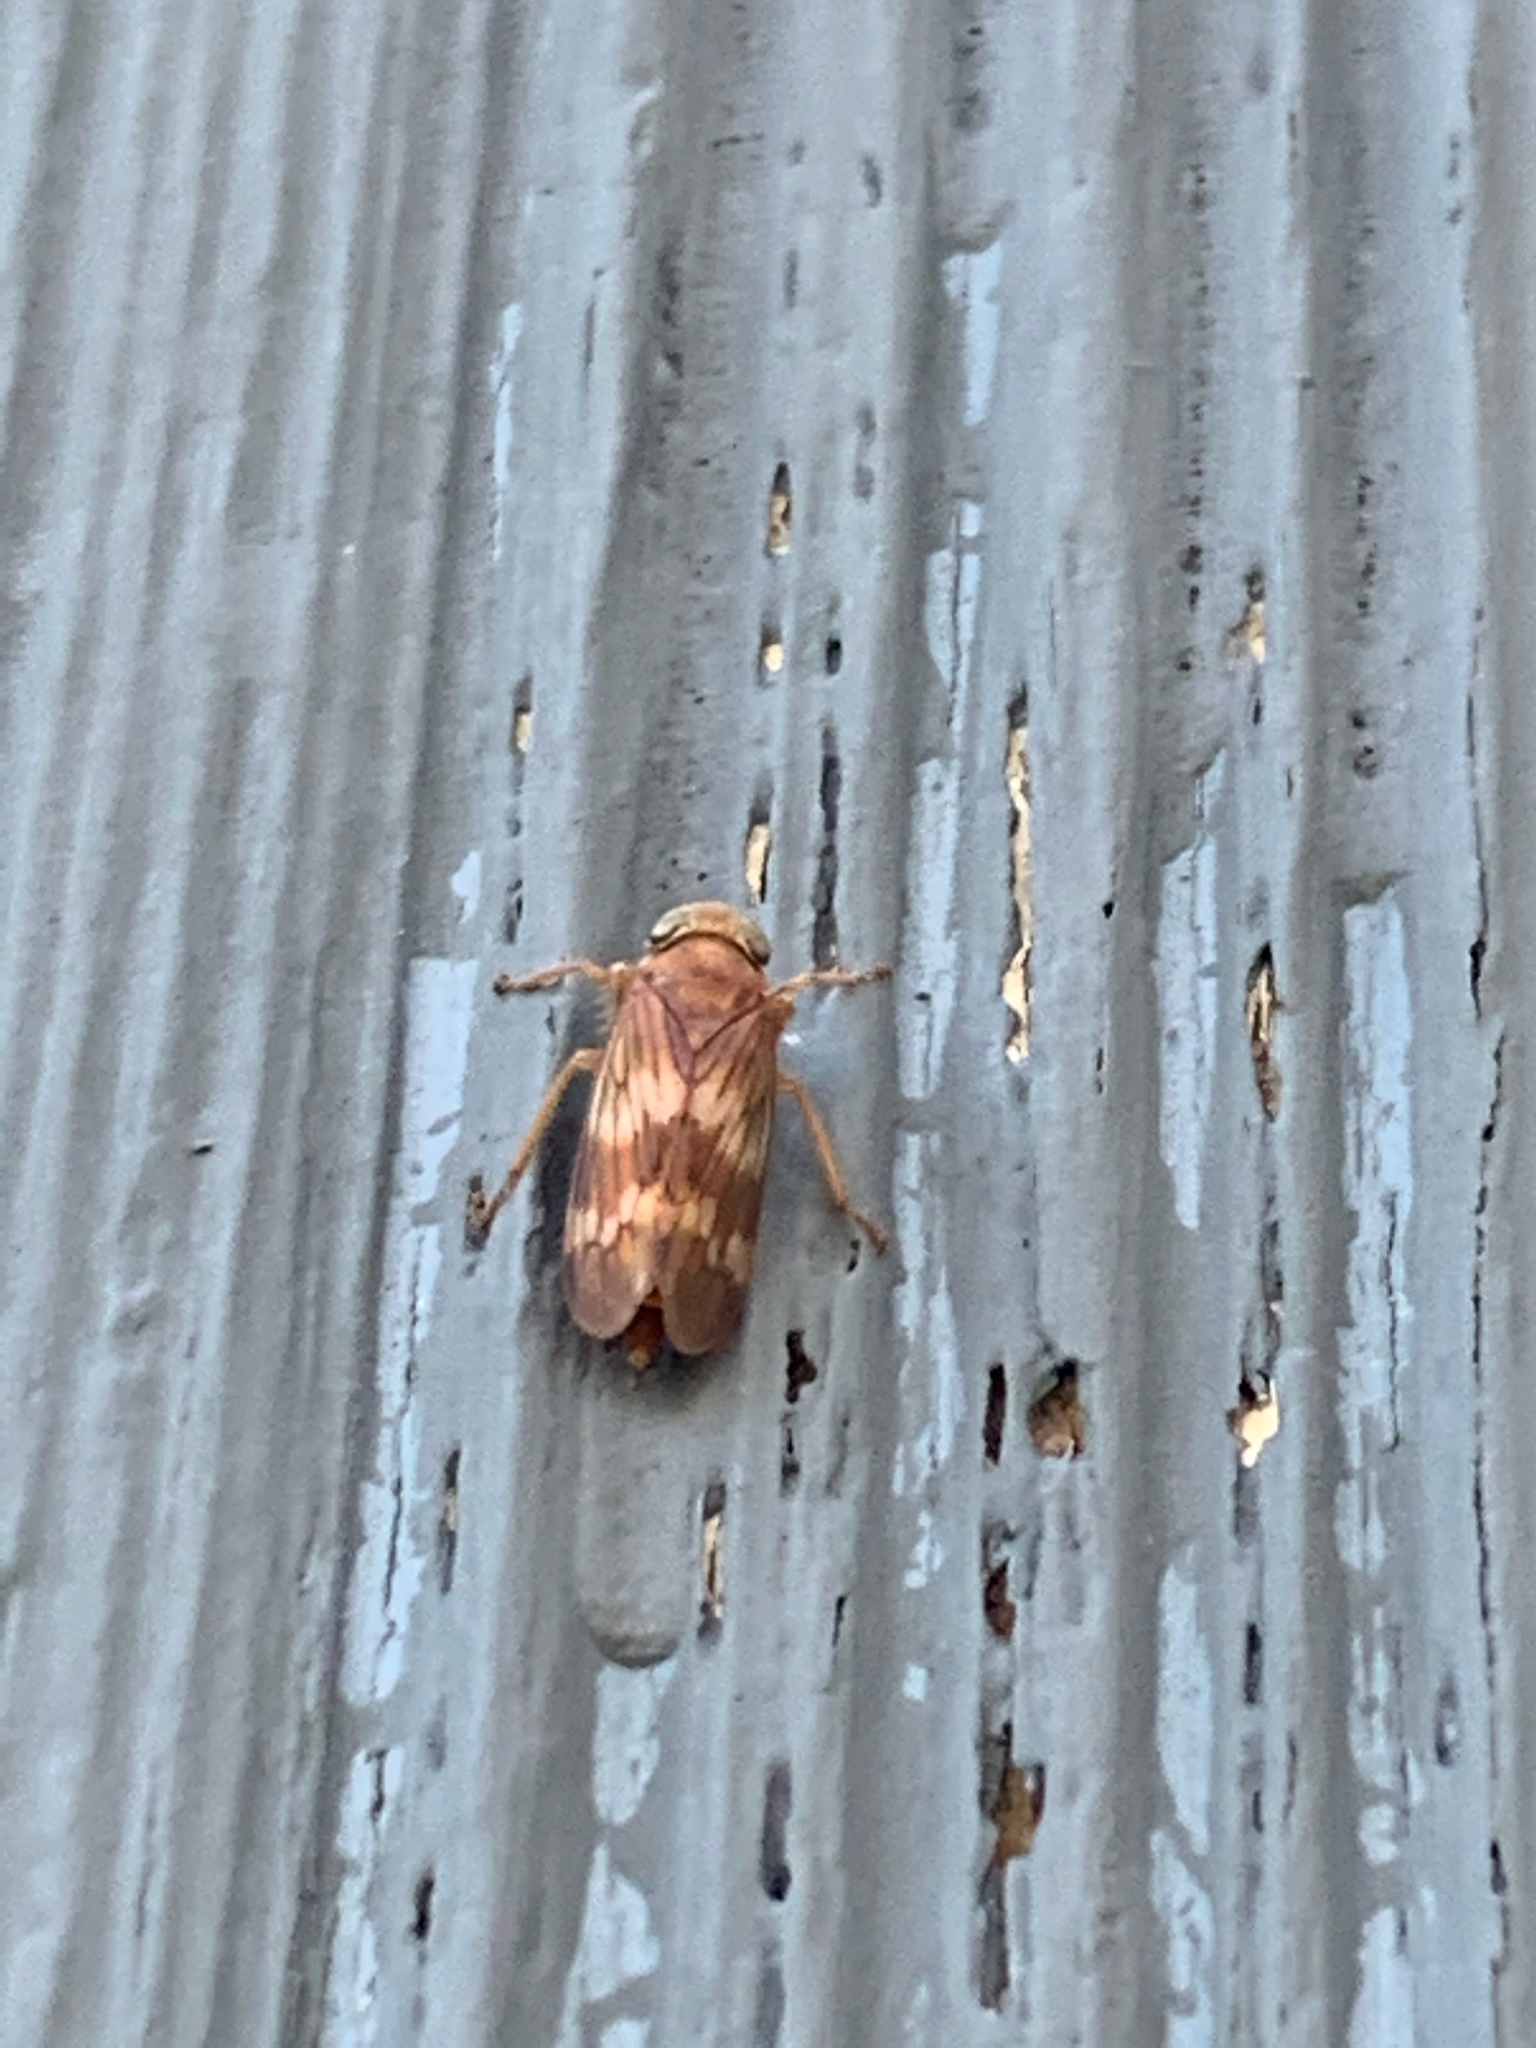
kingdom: Animalia
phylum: Arthropoda
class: Insecta
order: Hemiptera
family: Cicadellidae
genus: Jikradia
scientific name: Jikradia olitoria
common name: Coppery leafhopper
